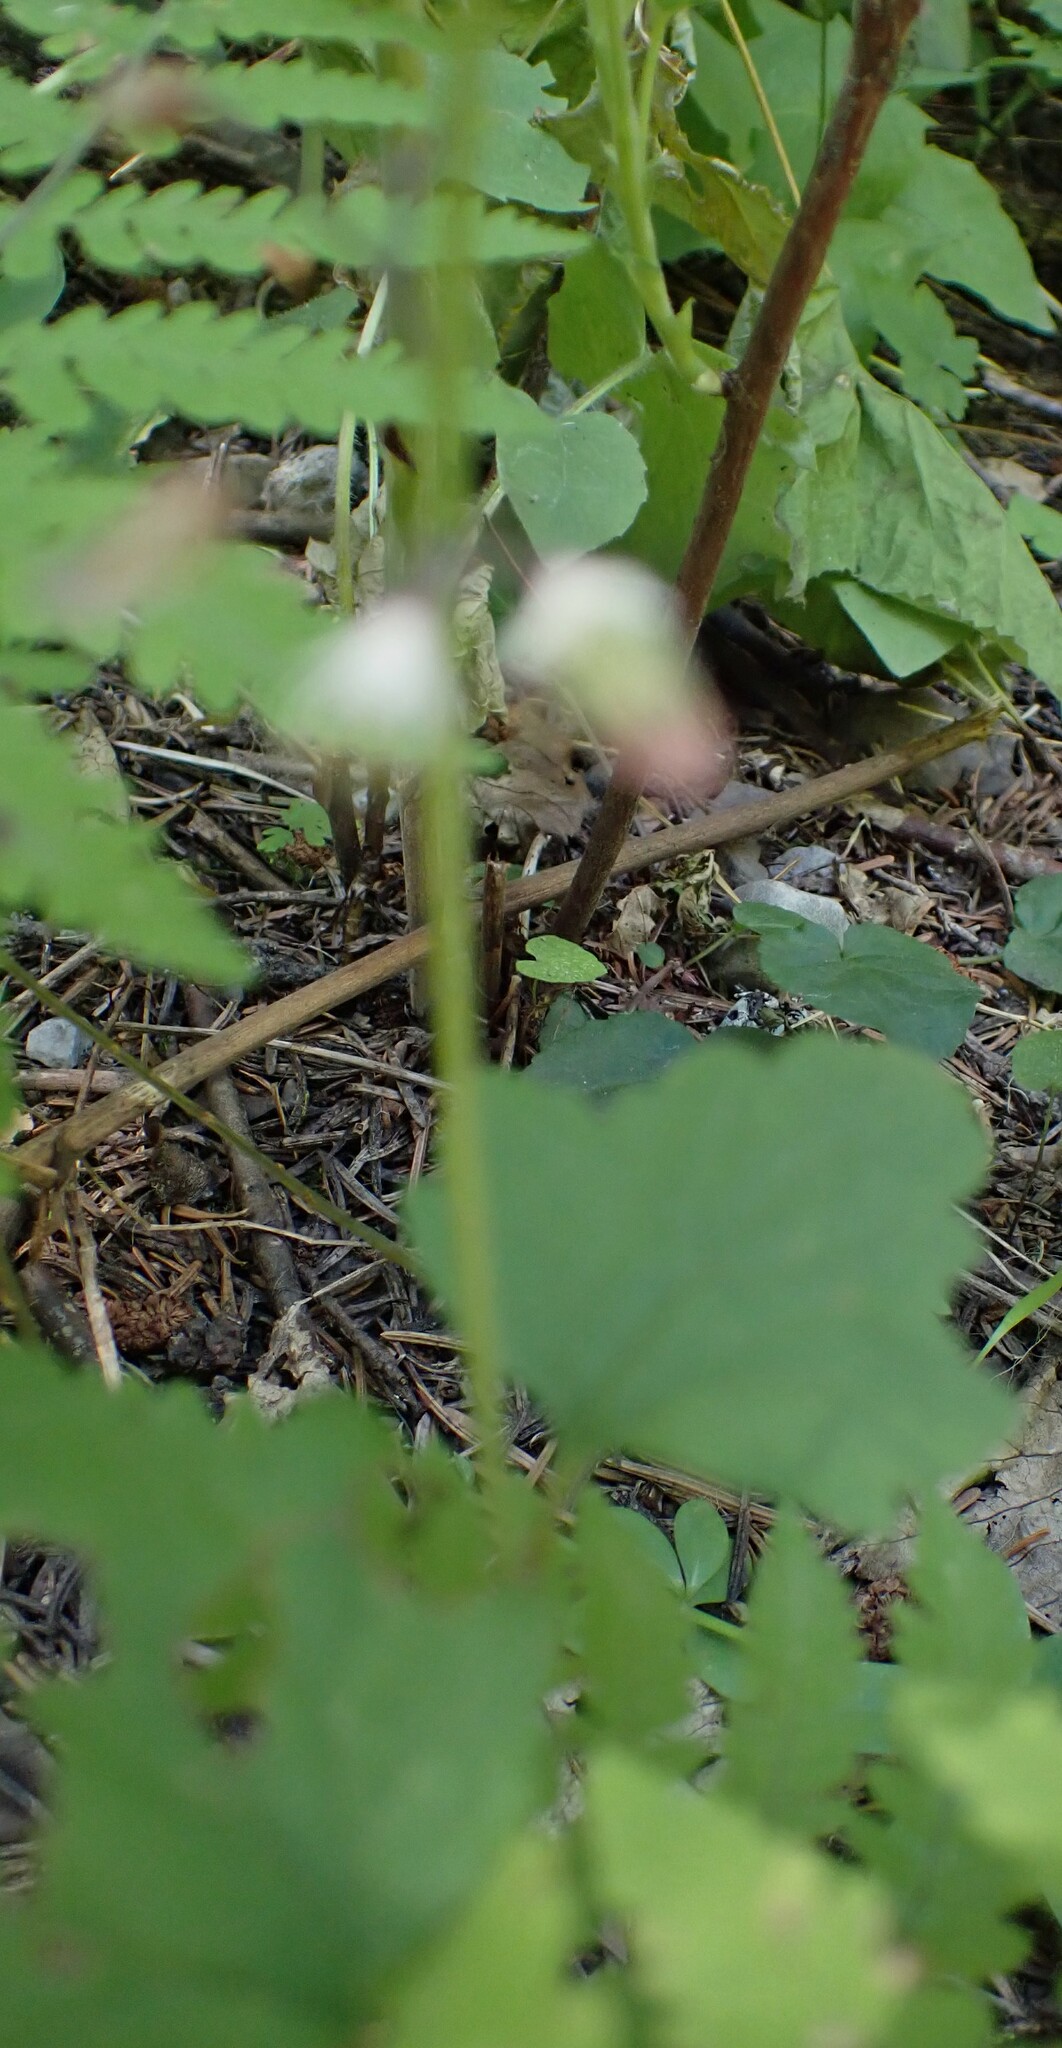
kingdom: Plantae
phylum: Tracheophyta
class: Magnoliopsida
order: Saxifragales
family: Saxifragaceae
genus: Tiarella
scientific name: Tiarella trifoliata
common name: Sugar-scoop
